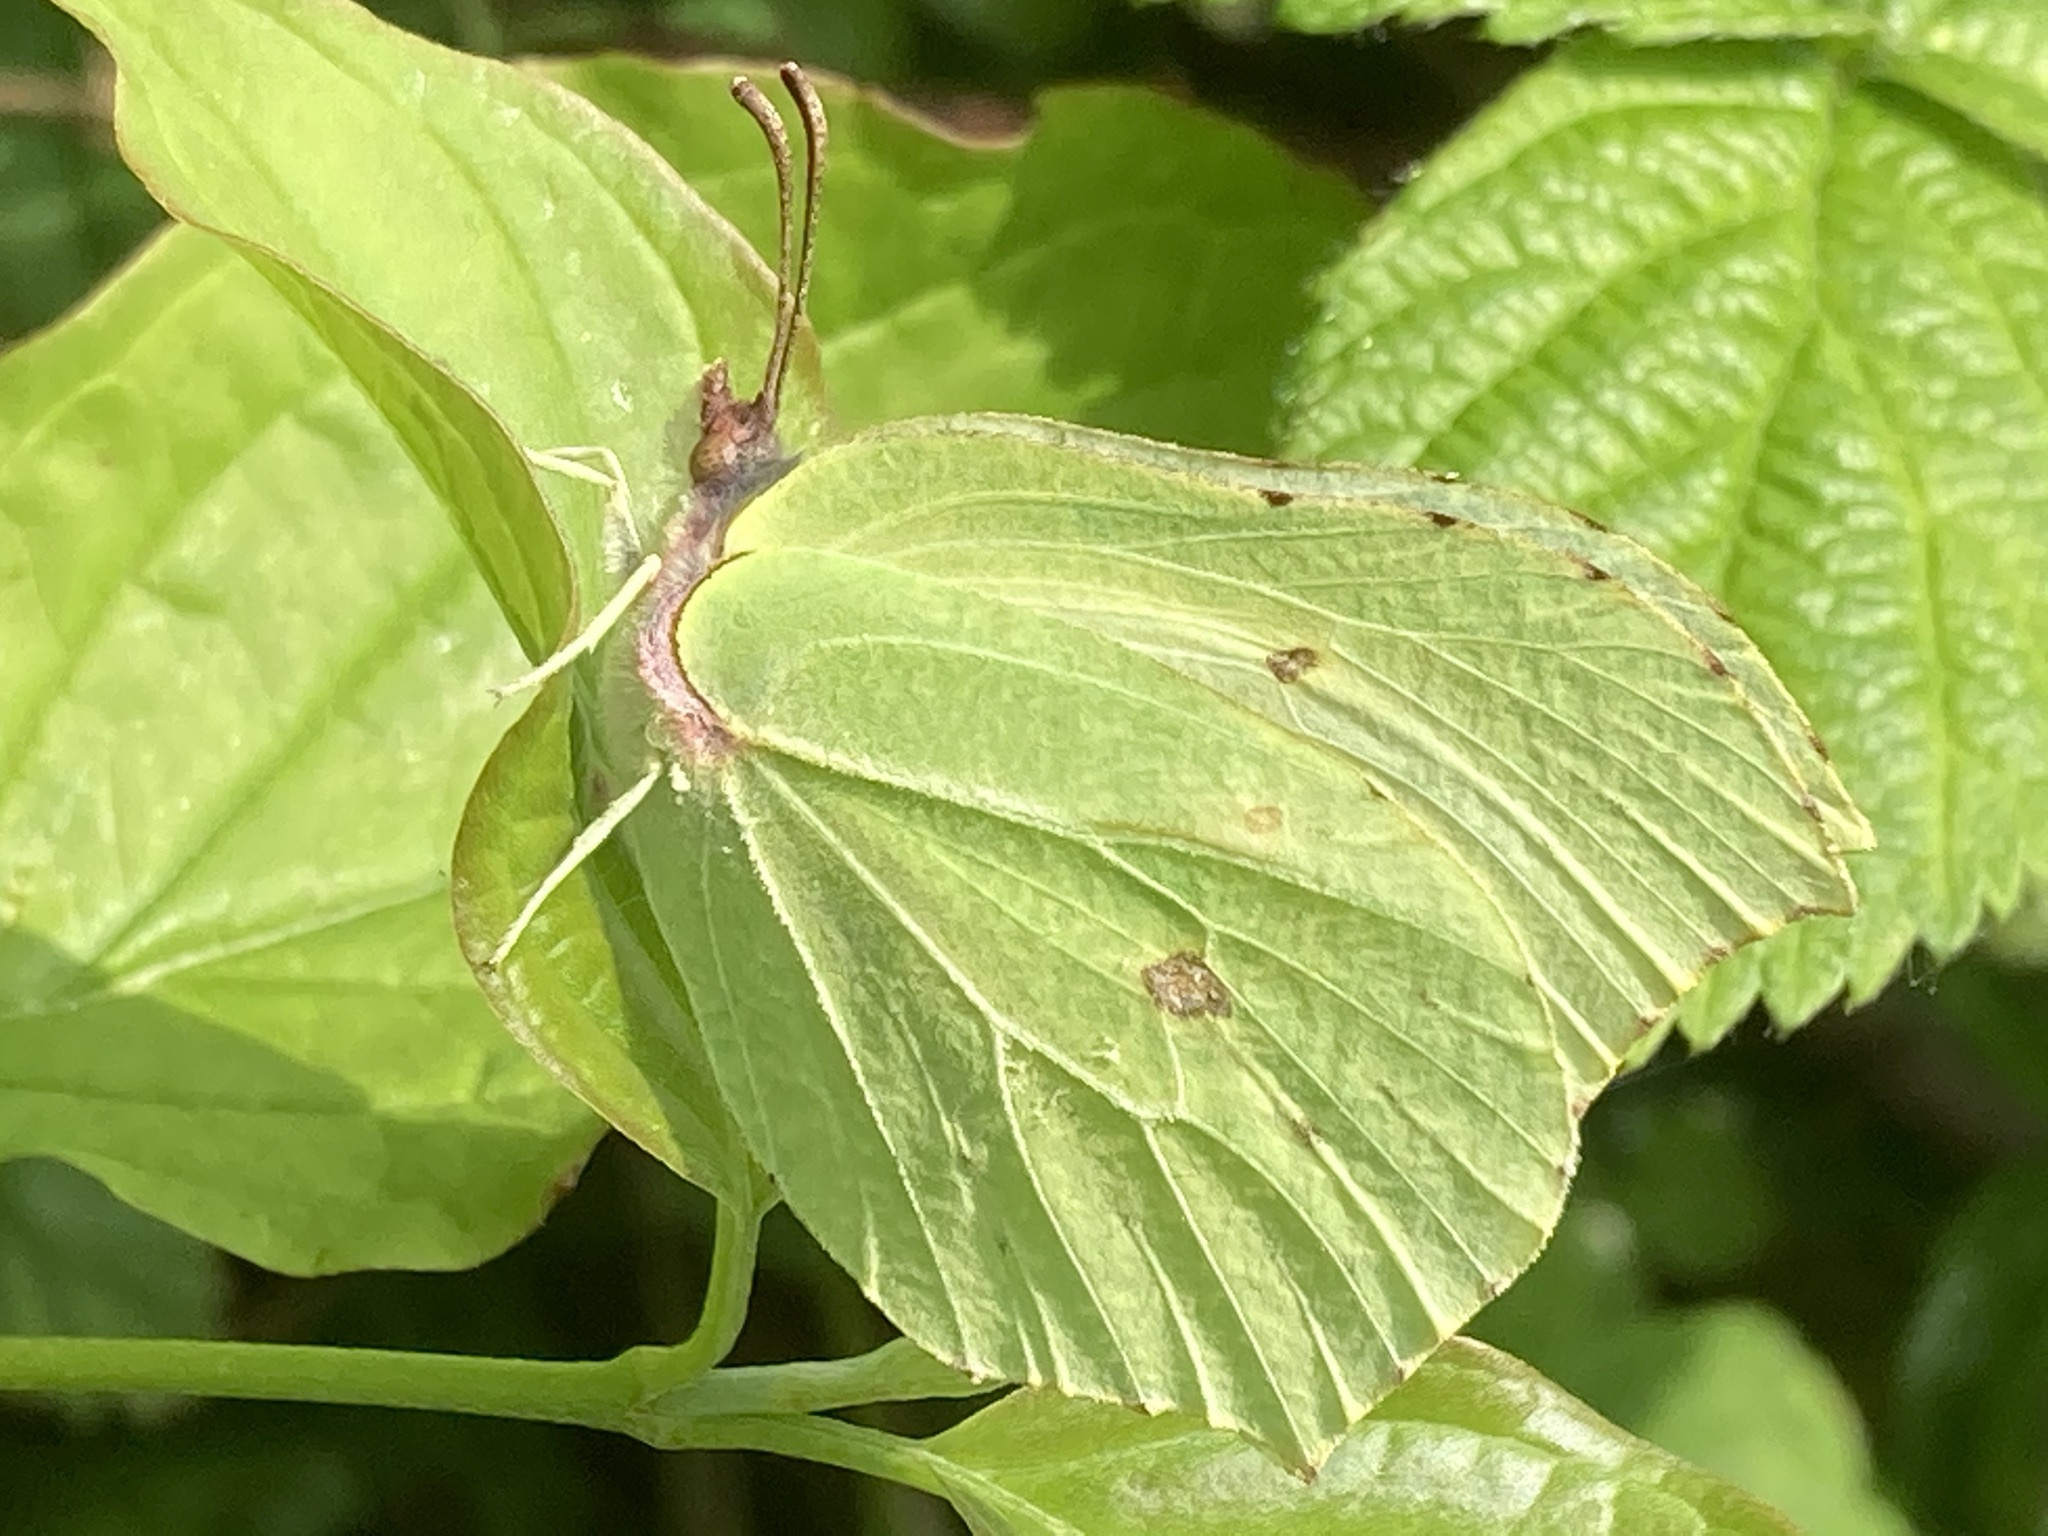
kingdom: Animalia
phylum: Arthropoda
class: Insecta
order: Lepidoptera
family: Pieridae
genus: Gonepteryx
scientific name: Gonepteryx rhamni
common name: Brimstone
